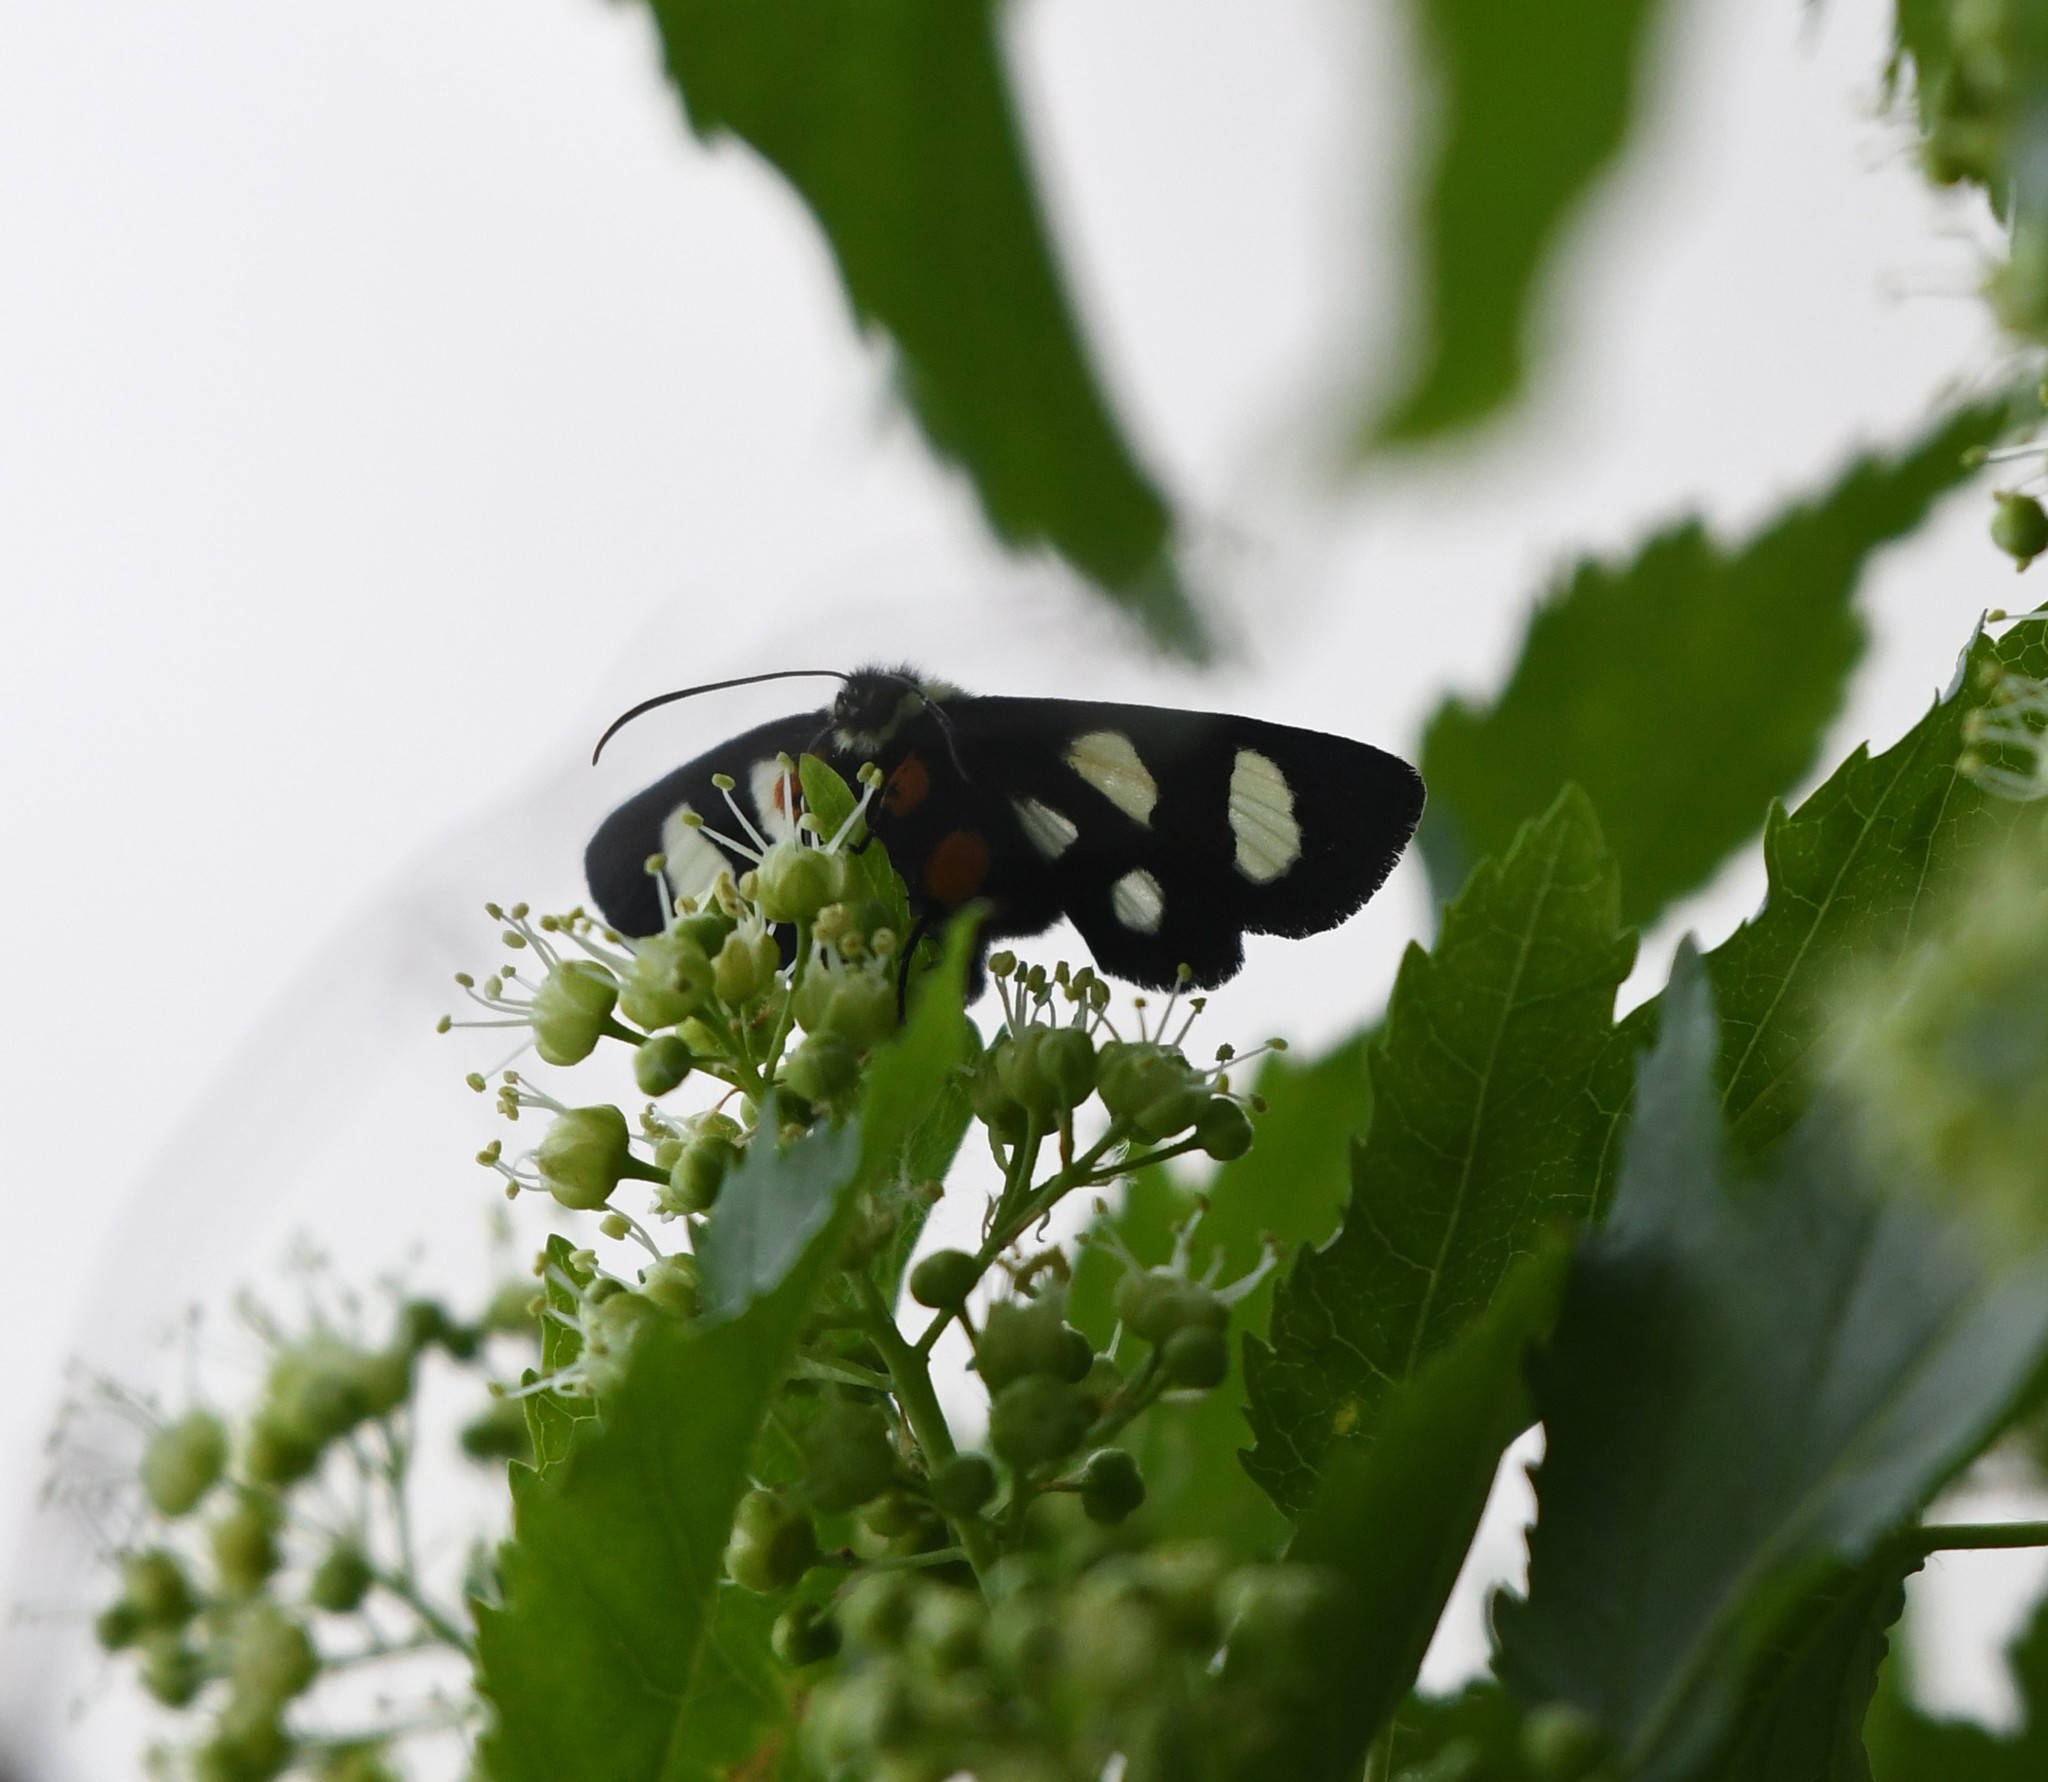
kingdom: Animalia
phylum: Arthropoda
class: Insecta
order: Lepidoptera
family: Noctuidae
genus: Alypia
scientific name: Alypia octomaculata
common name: Eight-spotted forester
